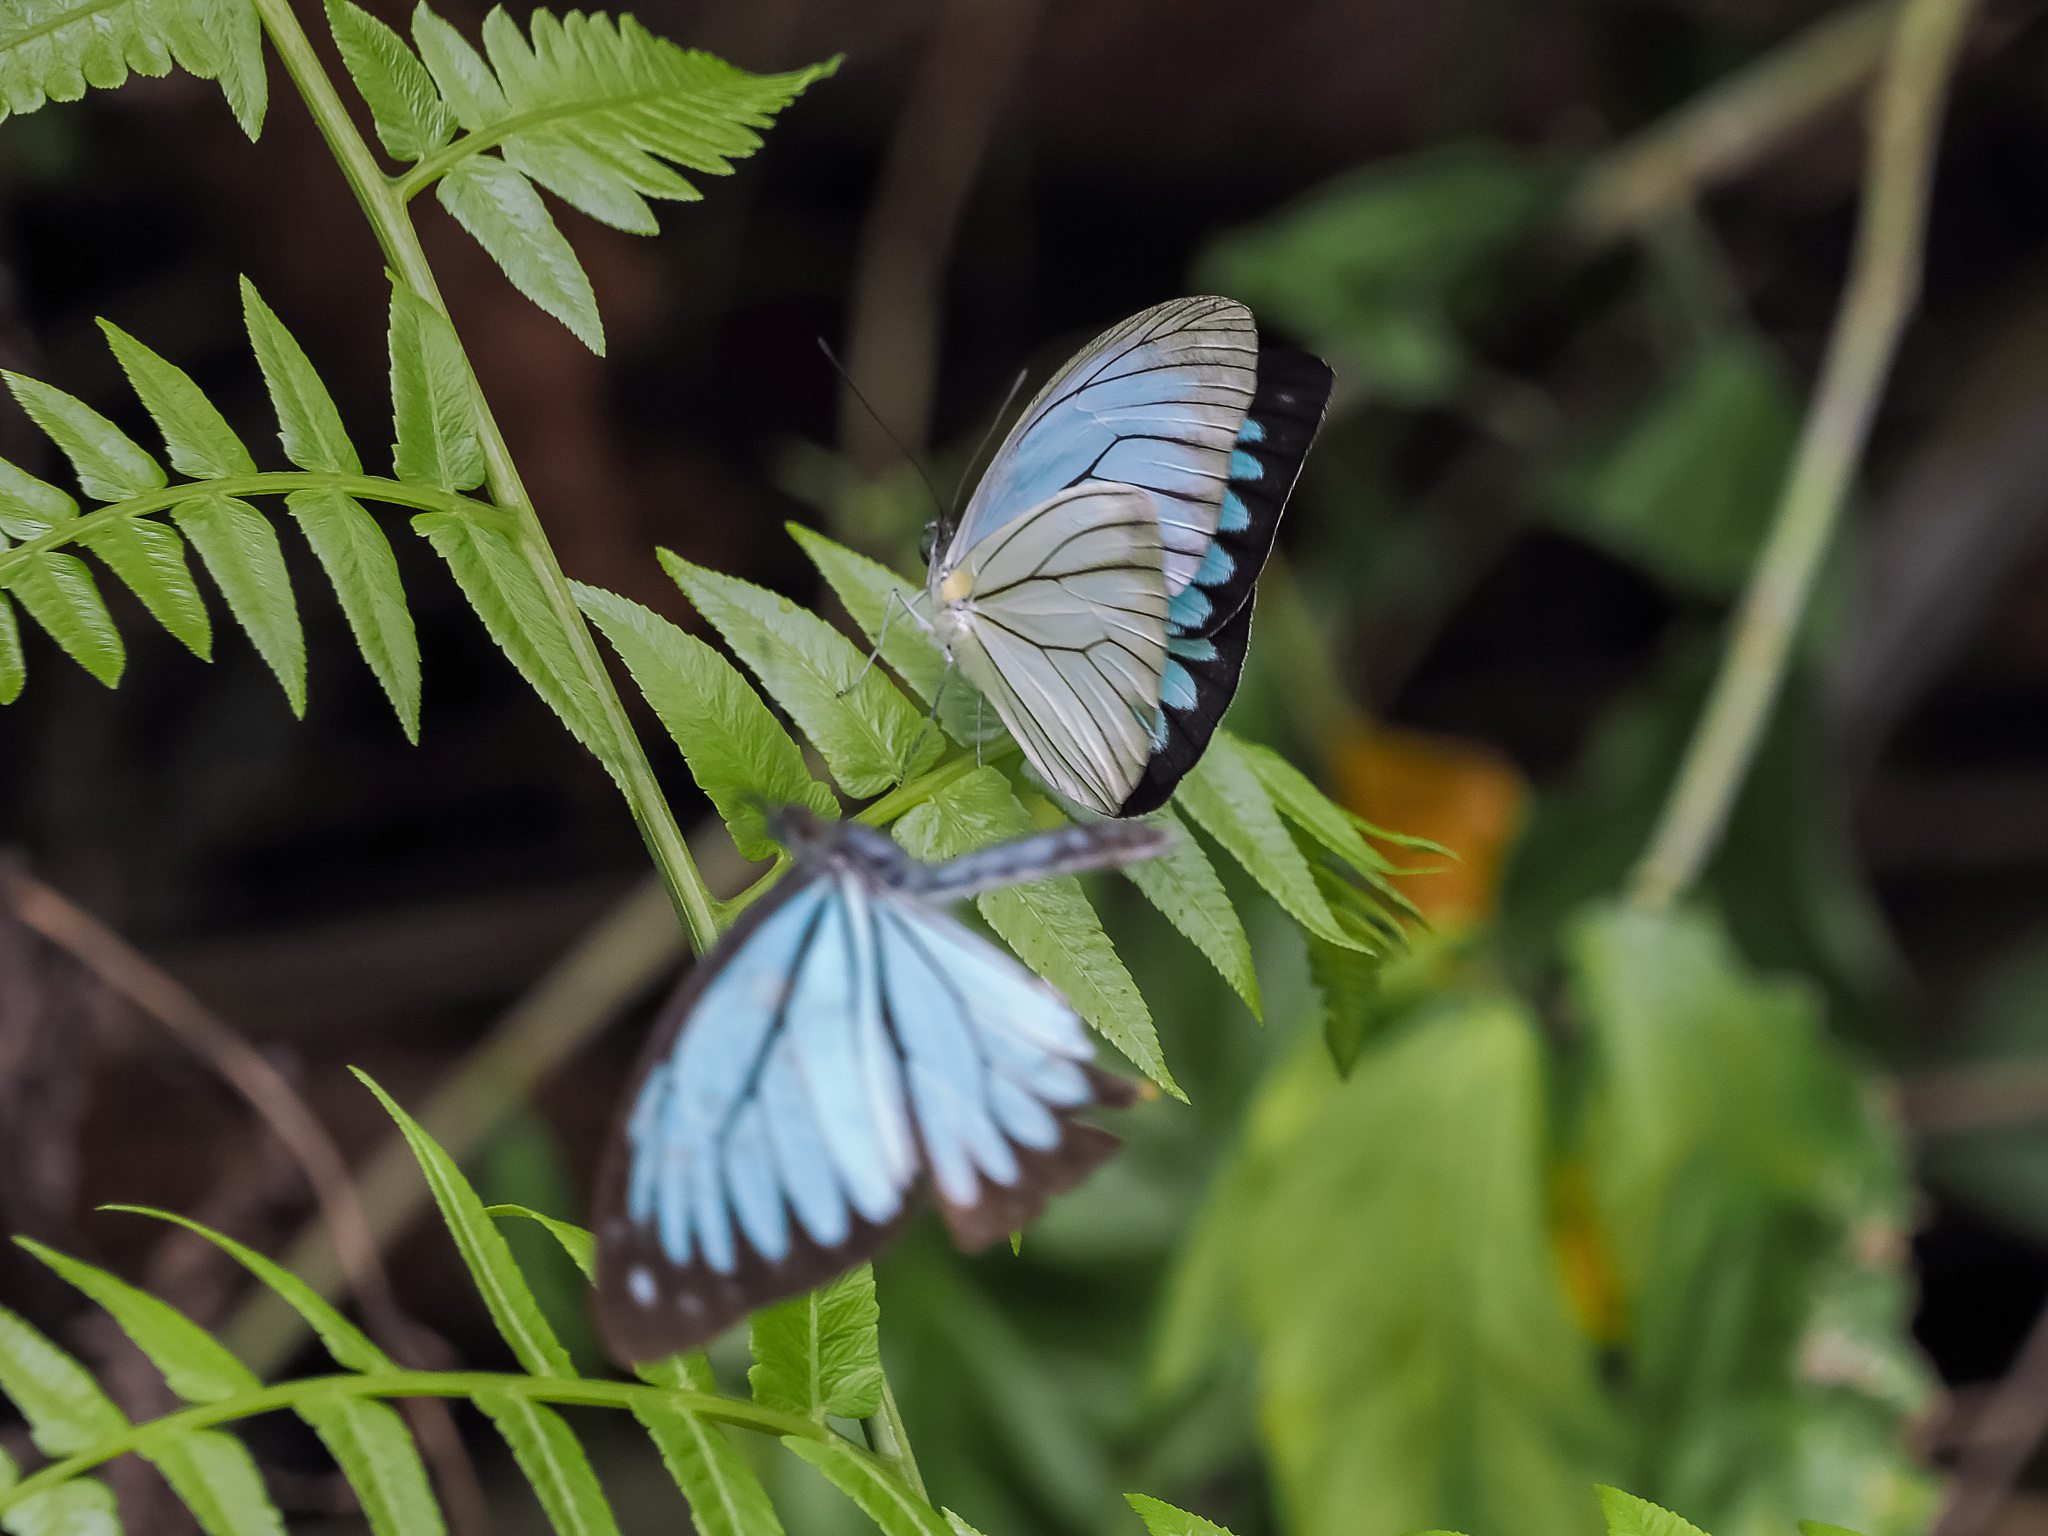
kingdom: Animalia
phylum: Arthropoda
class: Insecta
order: Lepidoptera
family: Pieridae
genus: Pareronia
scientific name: Pareronia valeria
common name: Common wanderer?
